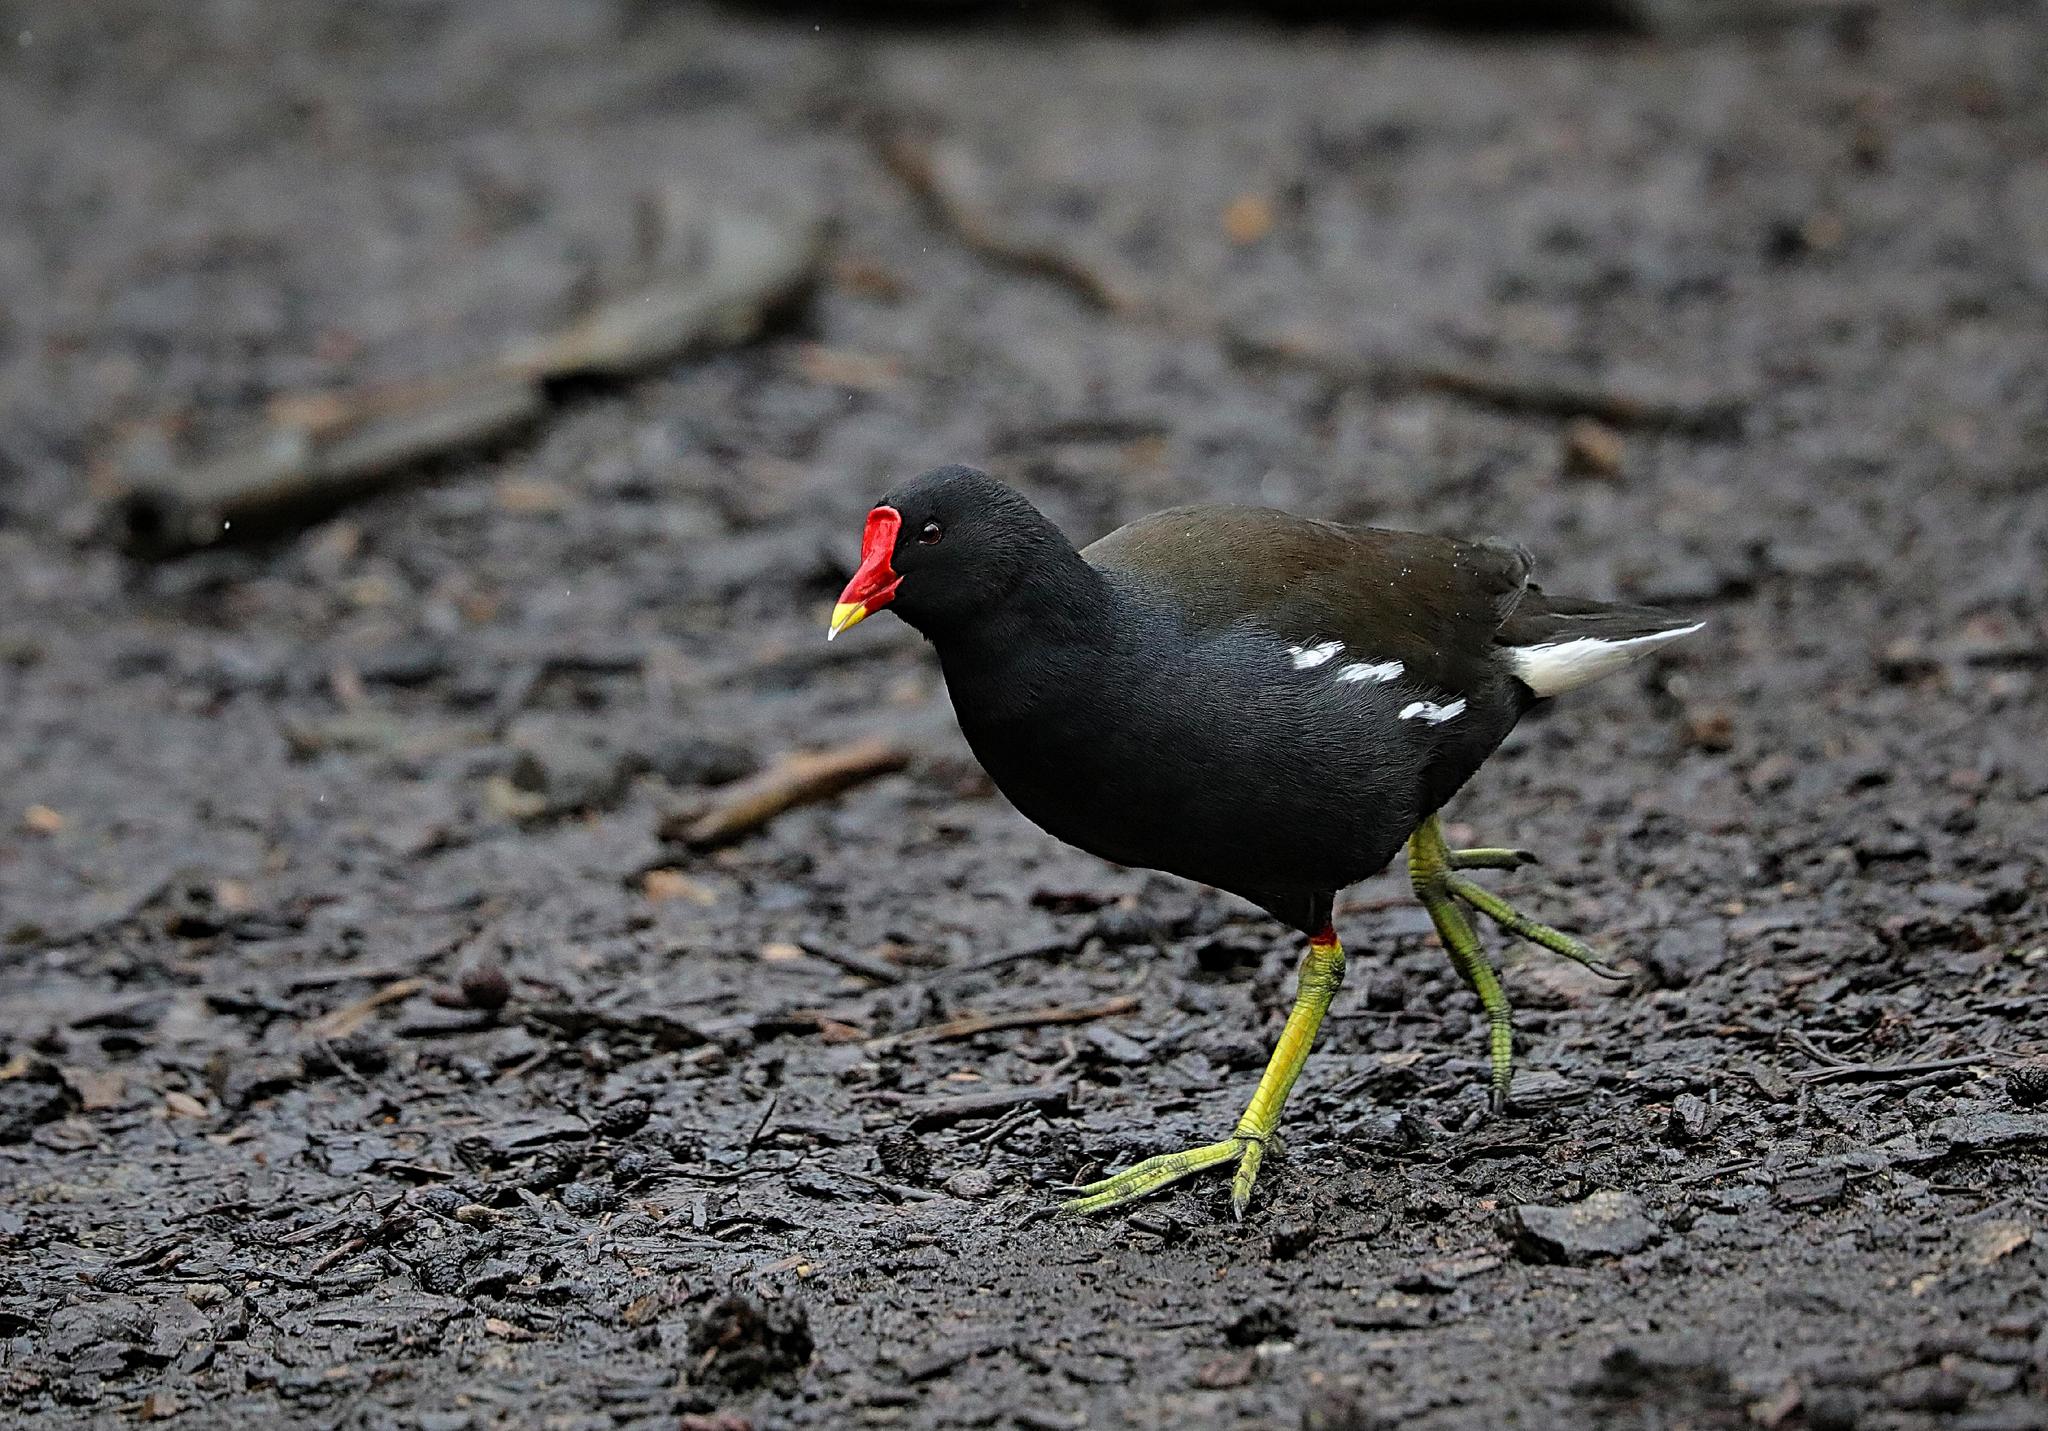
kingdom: Animalia
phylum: Chordata
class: Aves
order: Gruiformes
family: Rallidae
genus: Gallinula
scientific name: Gallinula chloropus
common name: Common moorhen
